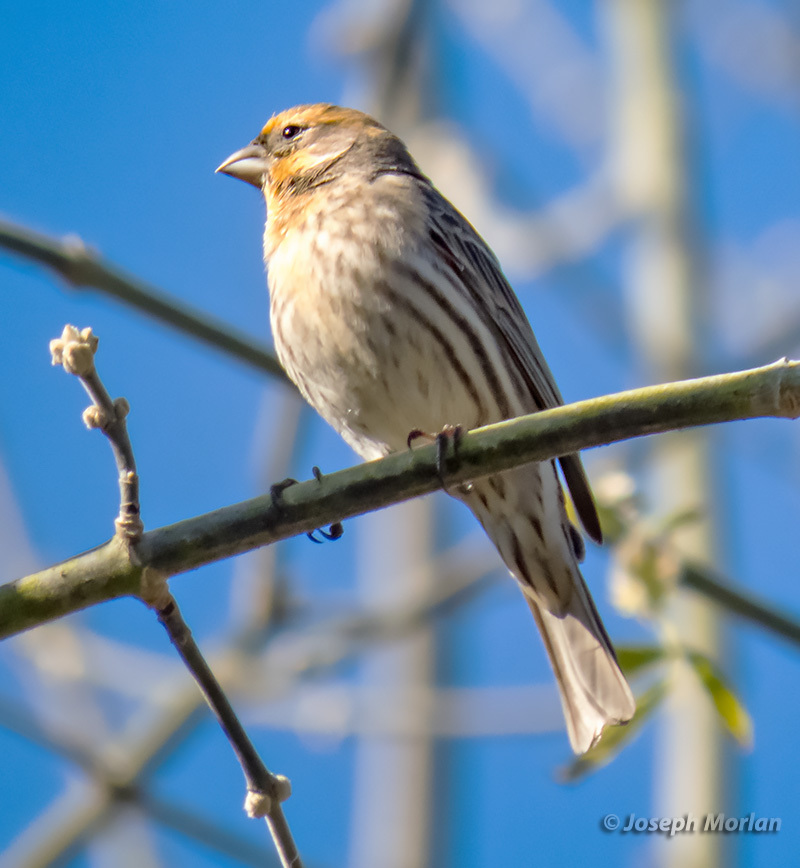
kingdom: Animalia
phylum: Chordata
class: Aves
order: Passeriformes
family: Fringillidae
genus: Haemorhous
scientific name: Haemorhous mexicanus
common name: House finch
